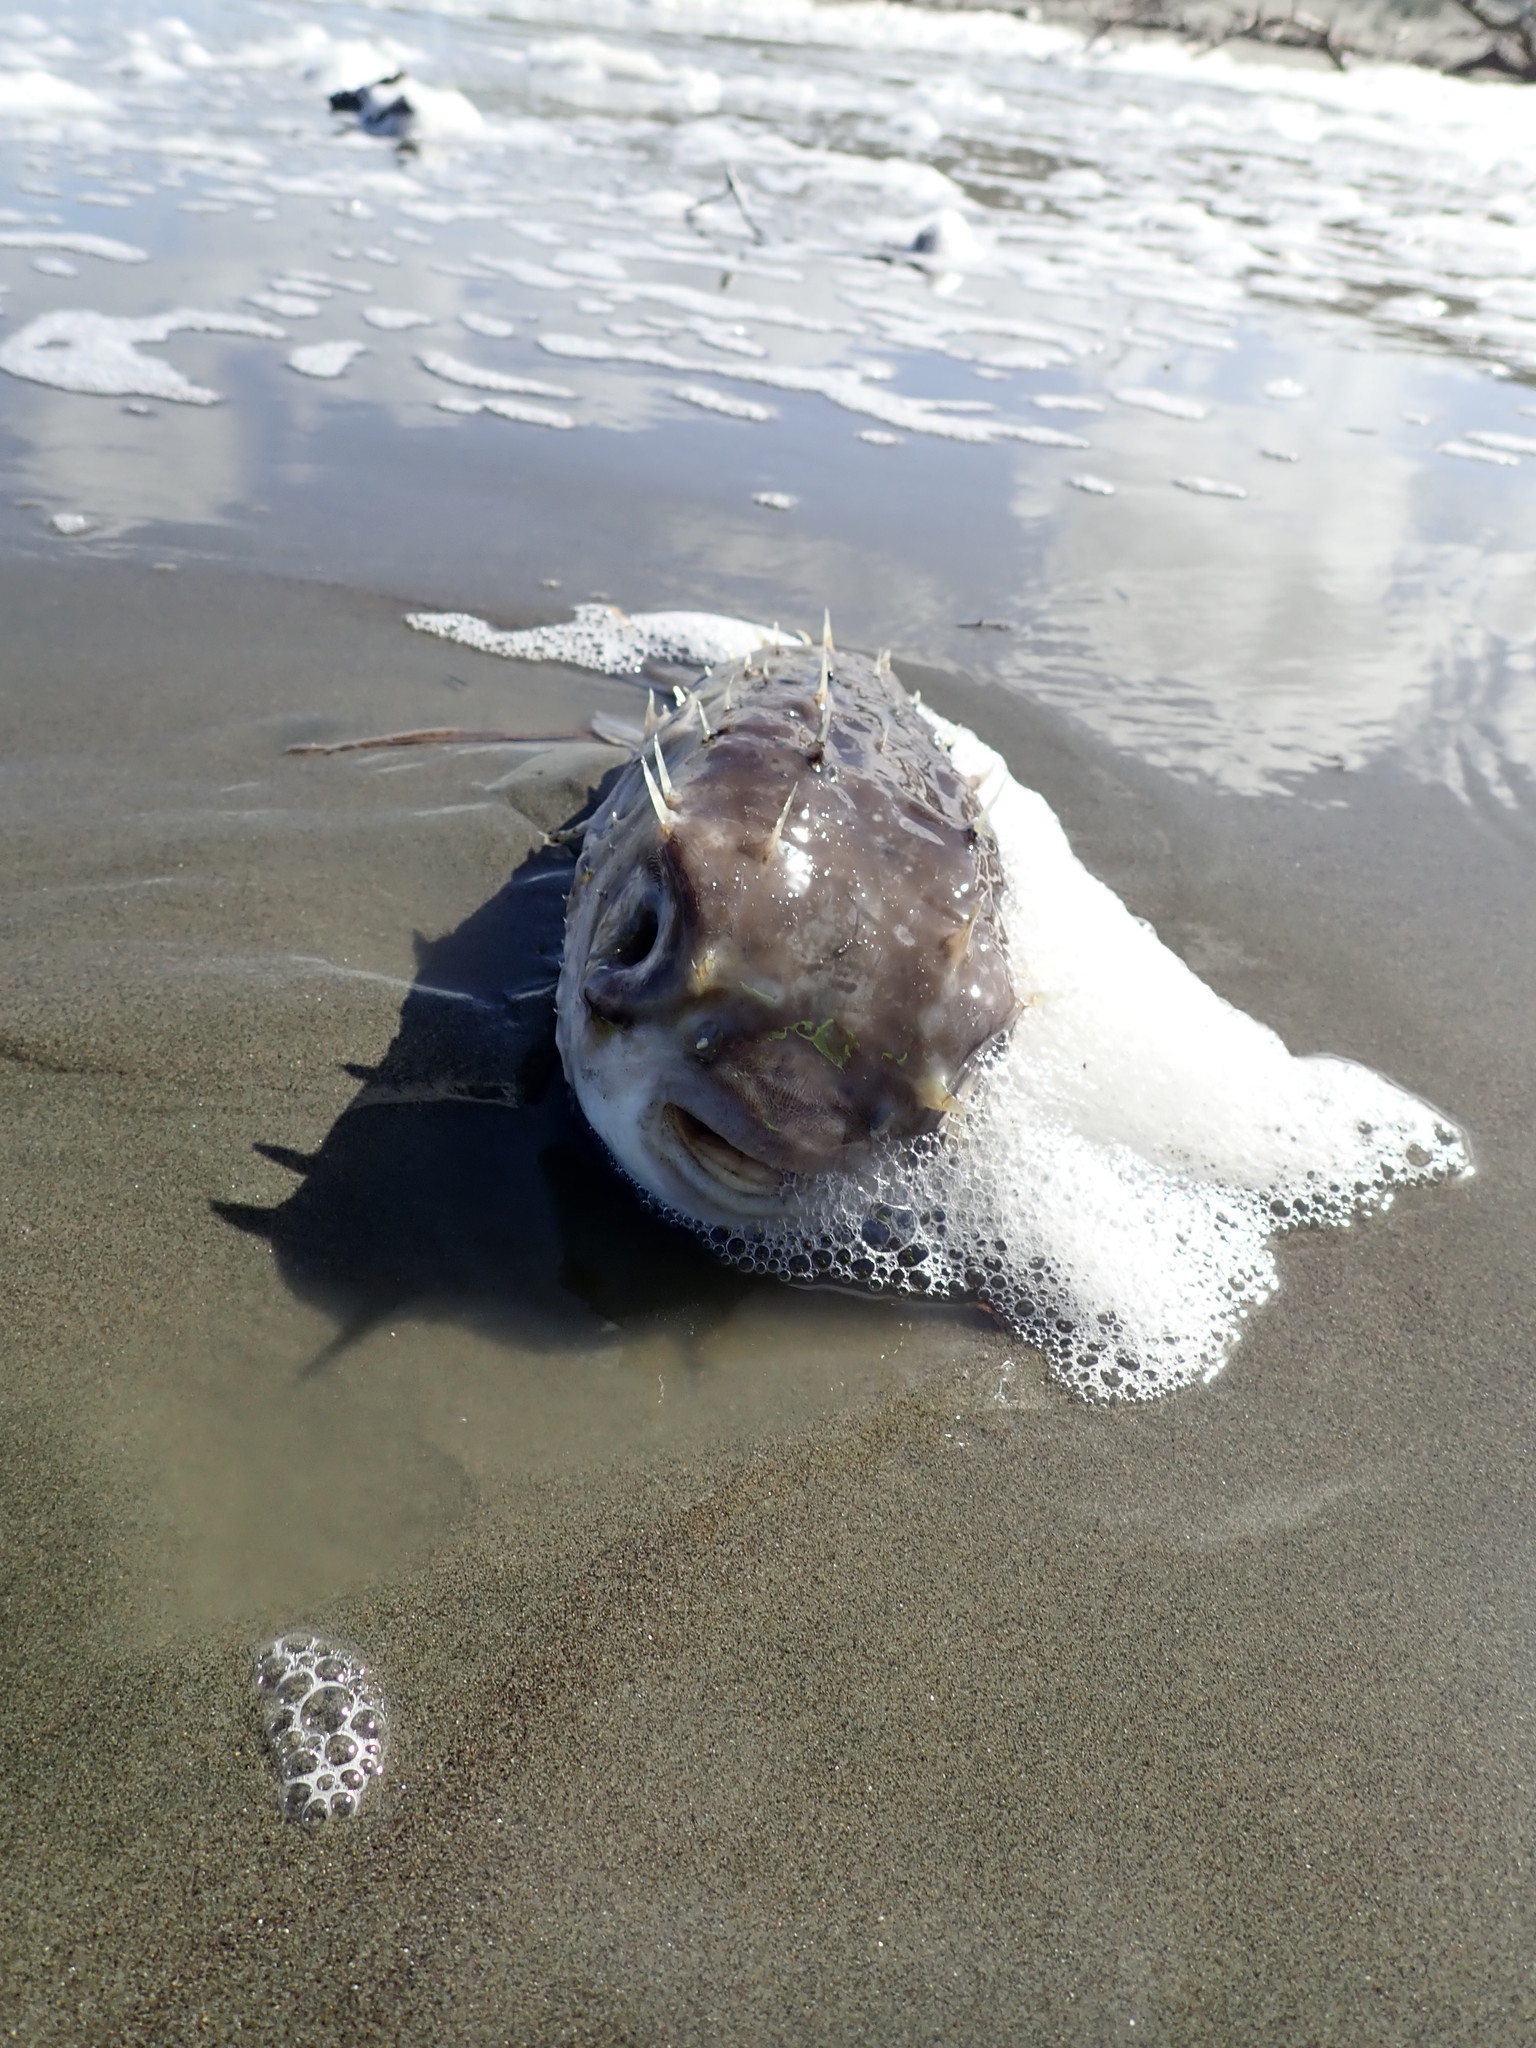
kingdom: Animalia
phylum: Chordata
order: Tetraodontiformes
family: Diodontidae
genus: Allomycterus
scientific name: Allomycterus pilatus
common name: No common name
